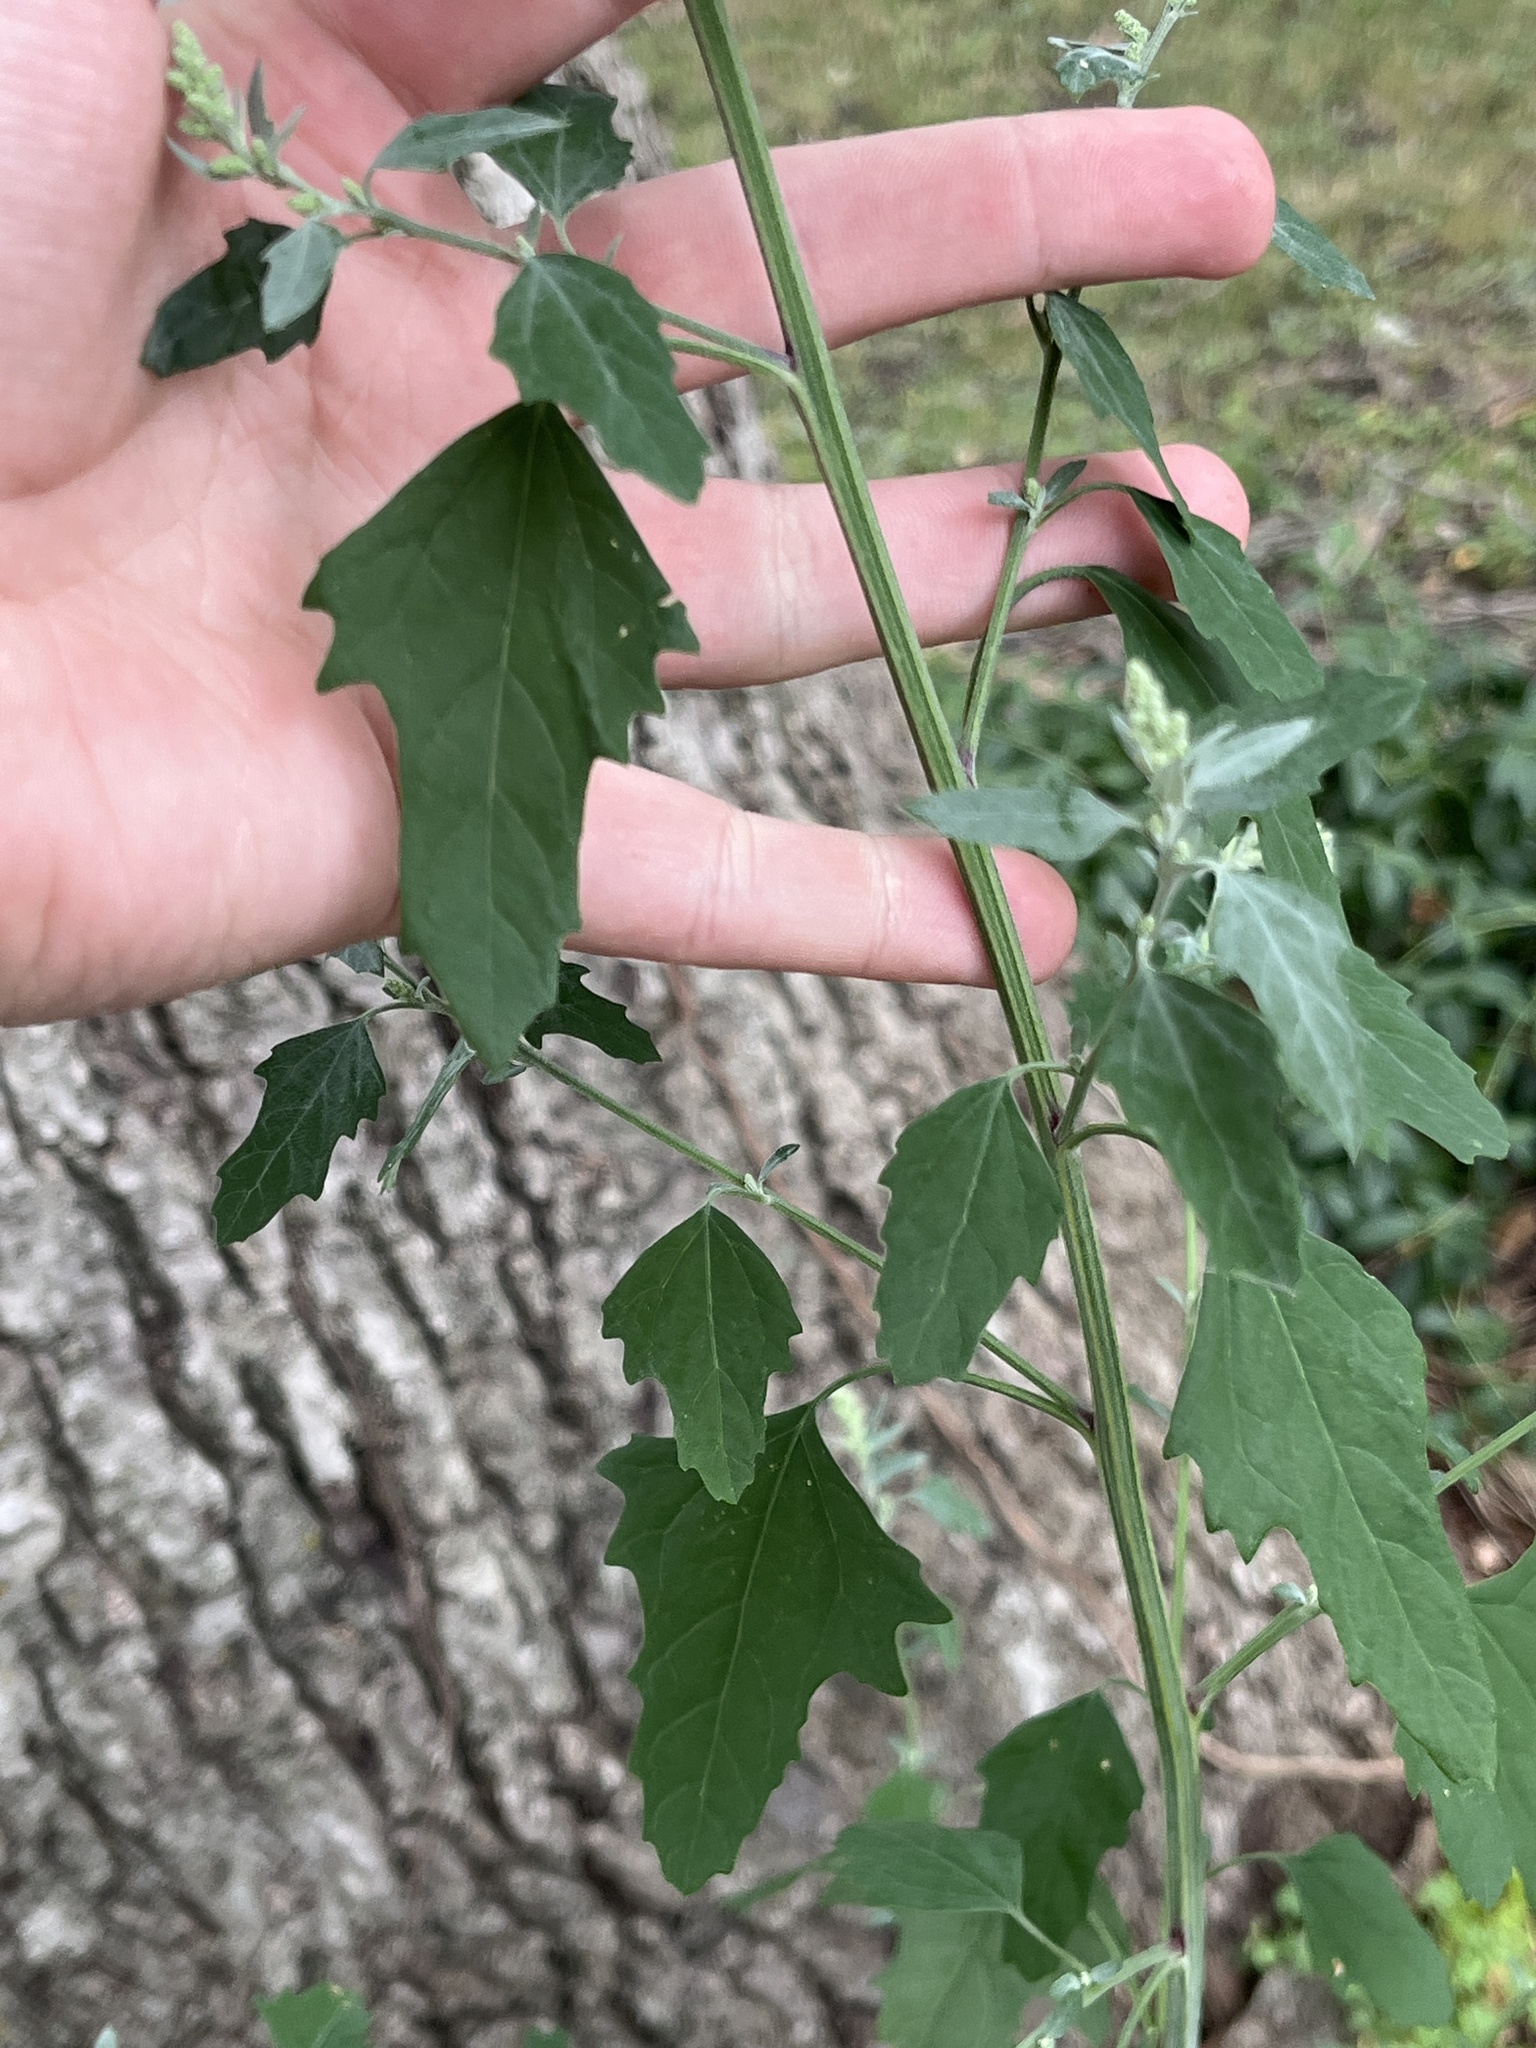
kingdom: Plantae
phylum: Tracheophyta
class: Magnoliopsida
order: Caryophyllales
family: Amaranthaceae
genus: Chenopodium
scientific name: Chenopodium album
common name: Fat-hen
